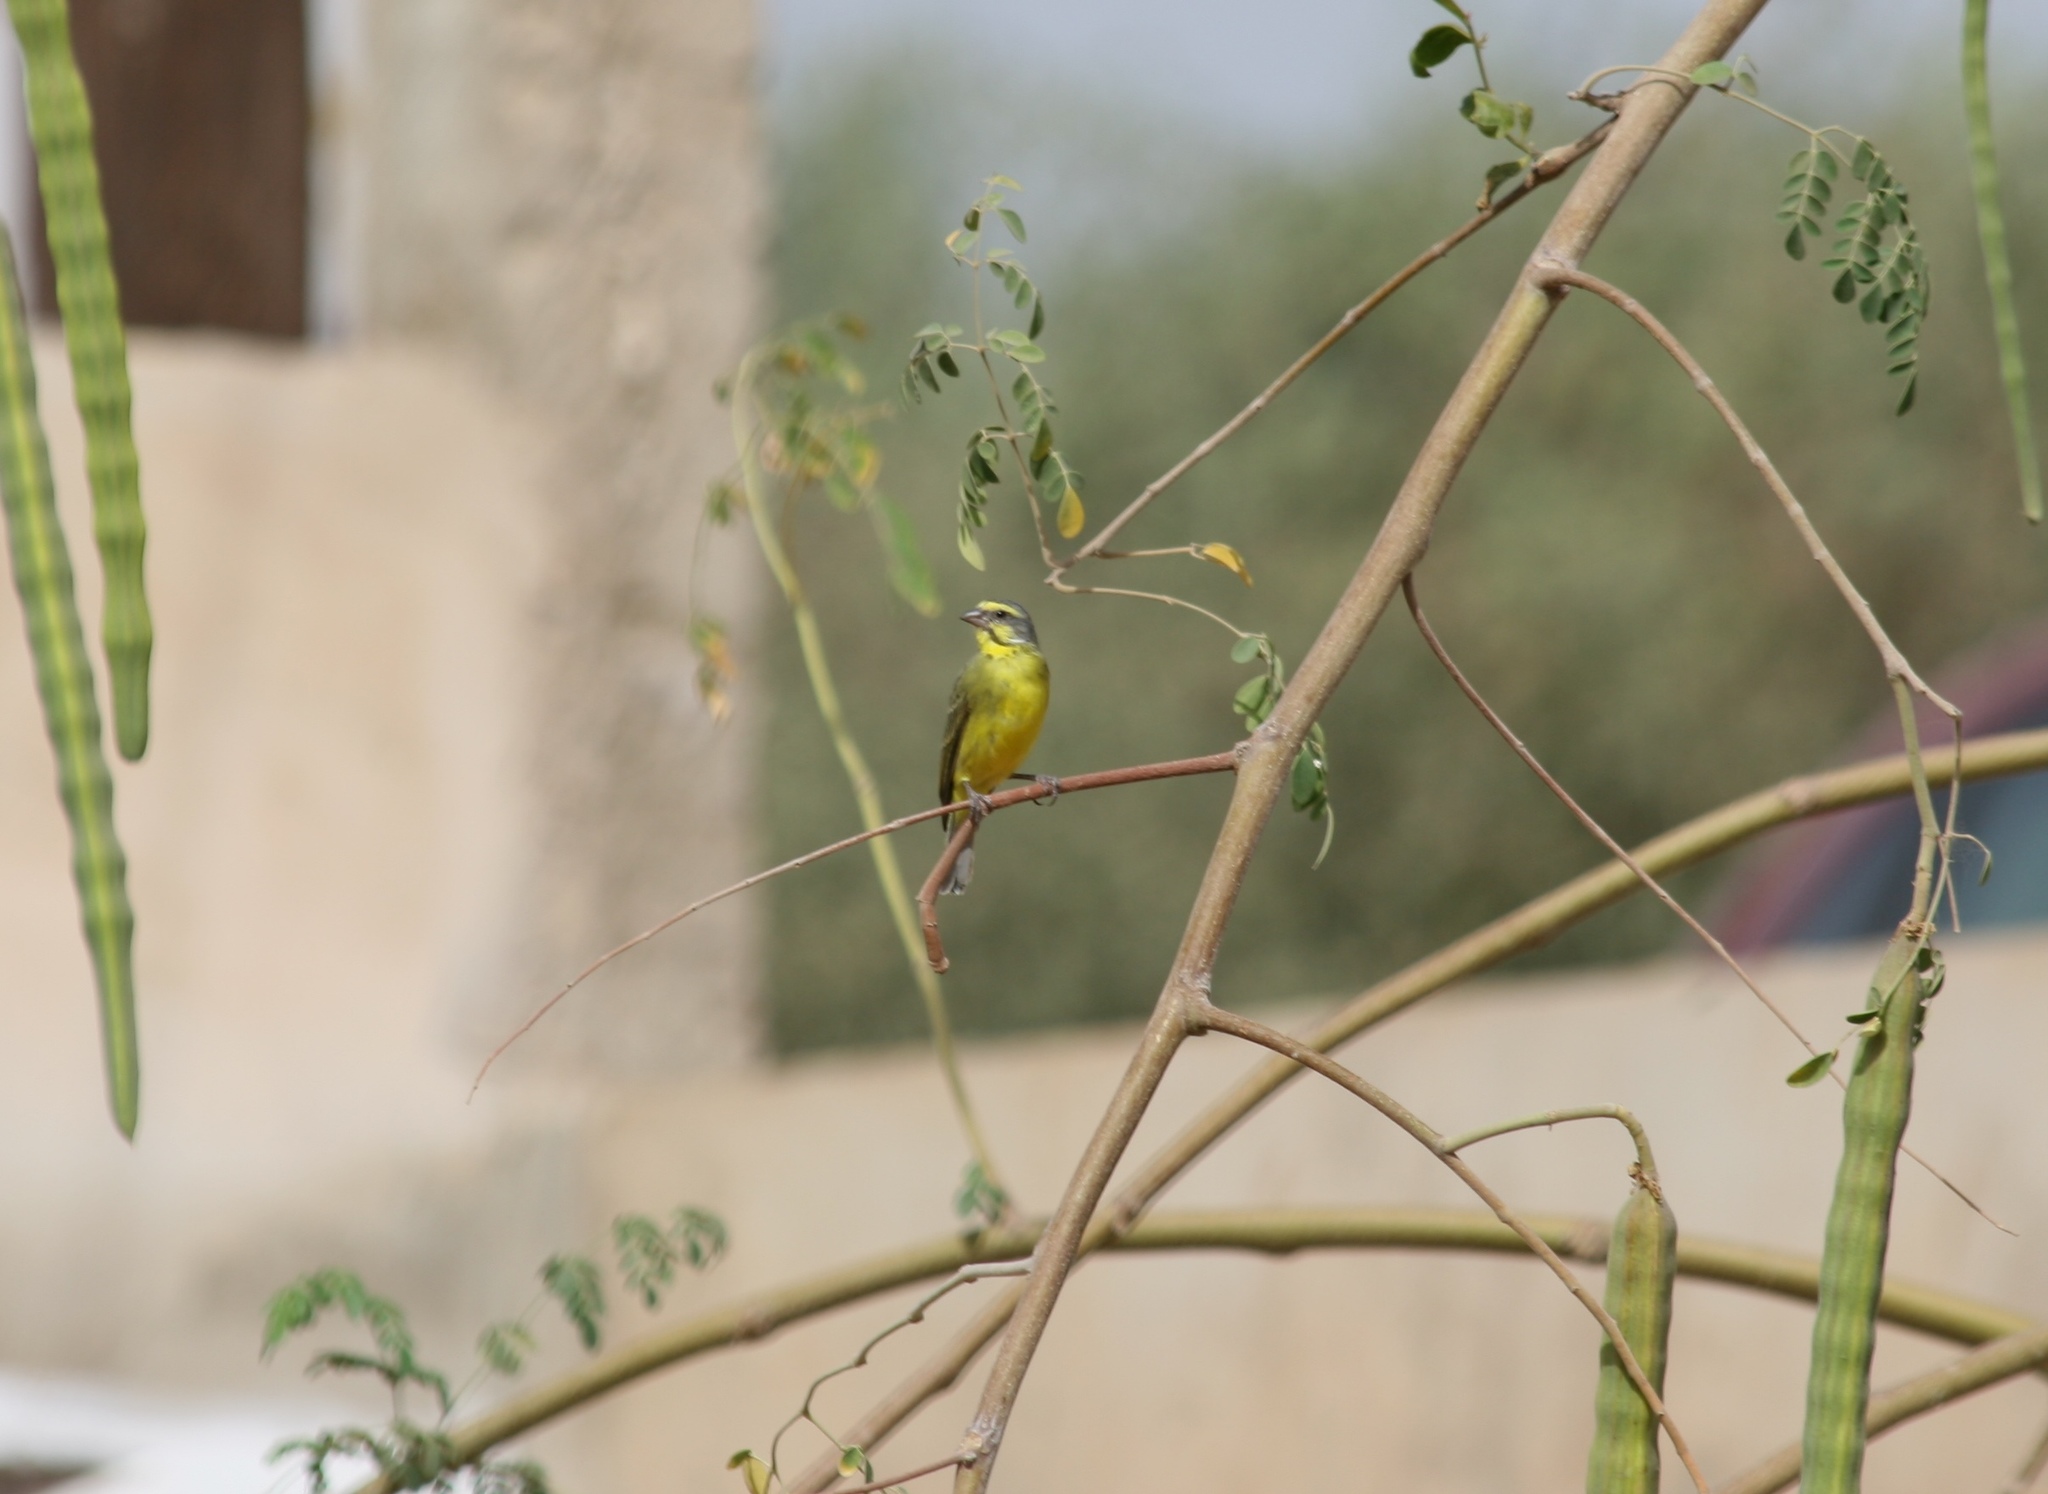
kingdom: Animalia
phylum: Chordata
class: Aves
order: Passeriformes
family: Fringillidae
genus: Crithagra
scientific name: Crithagra mozambica
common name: Yellow-fronted canary
